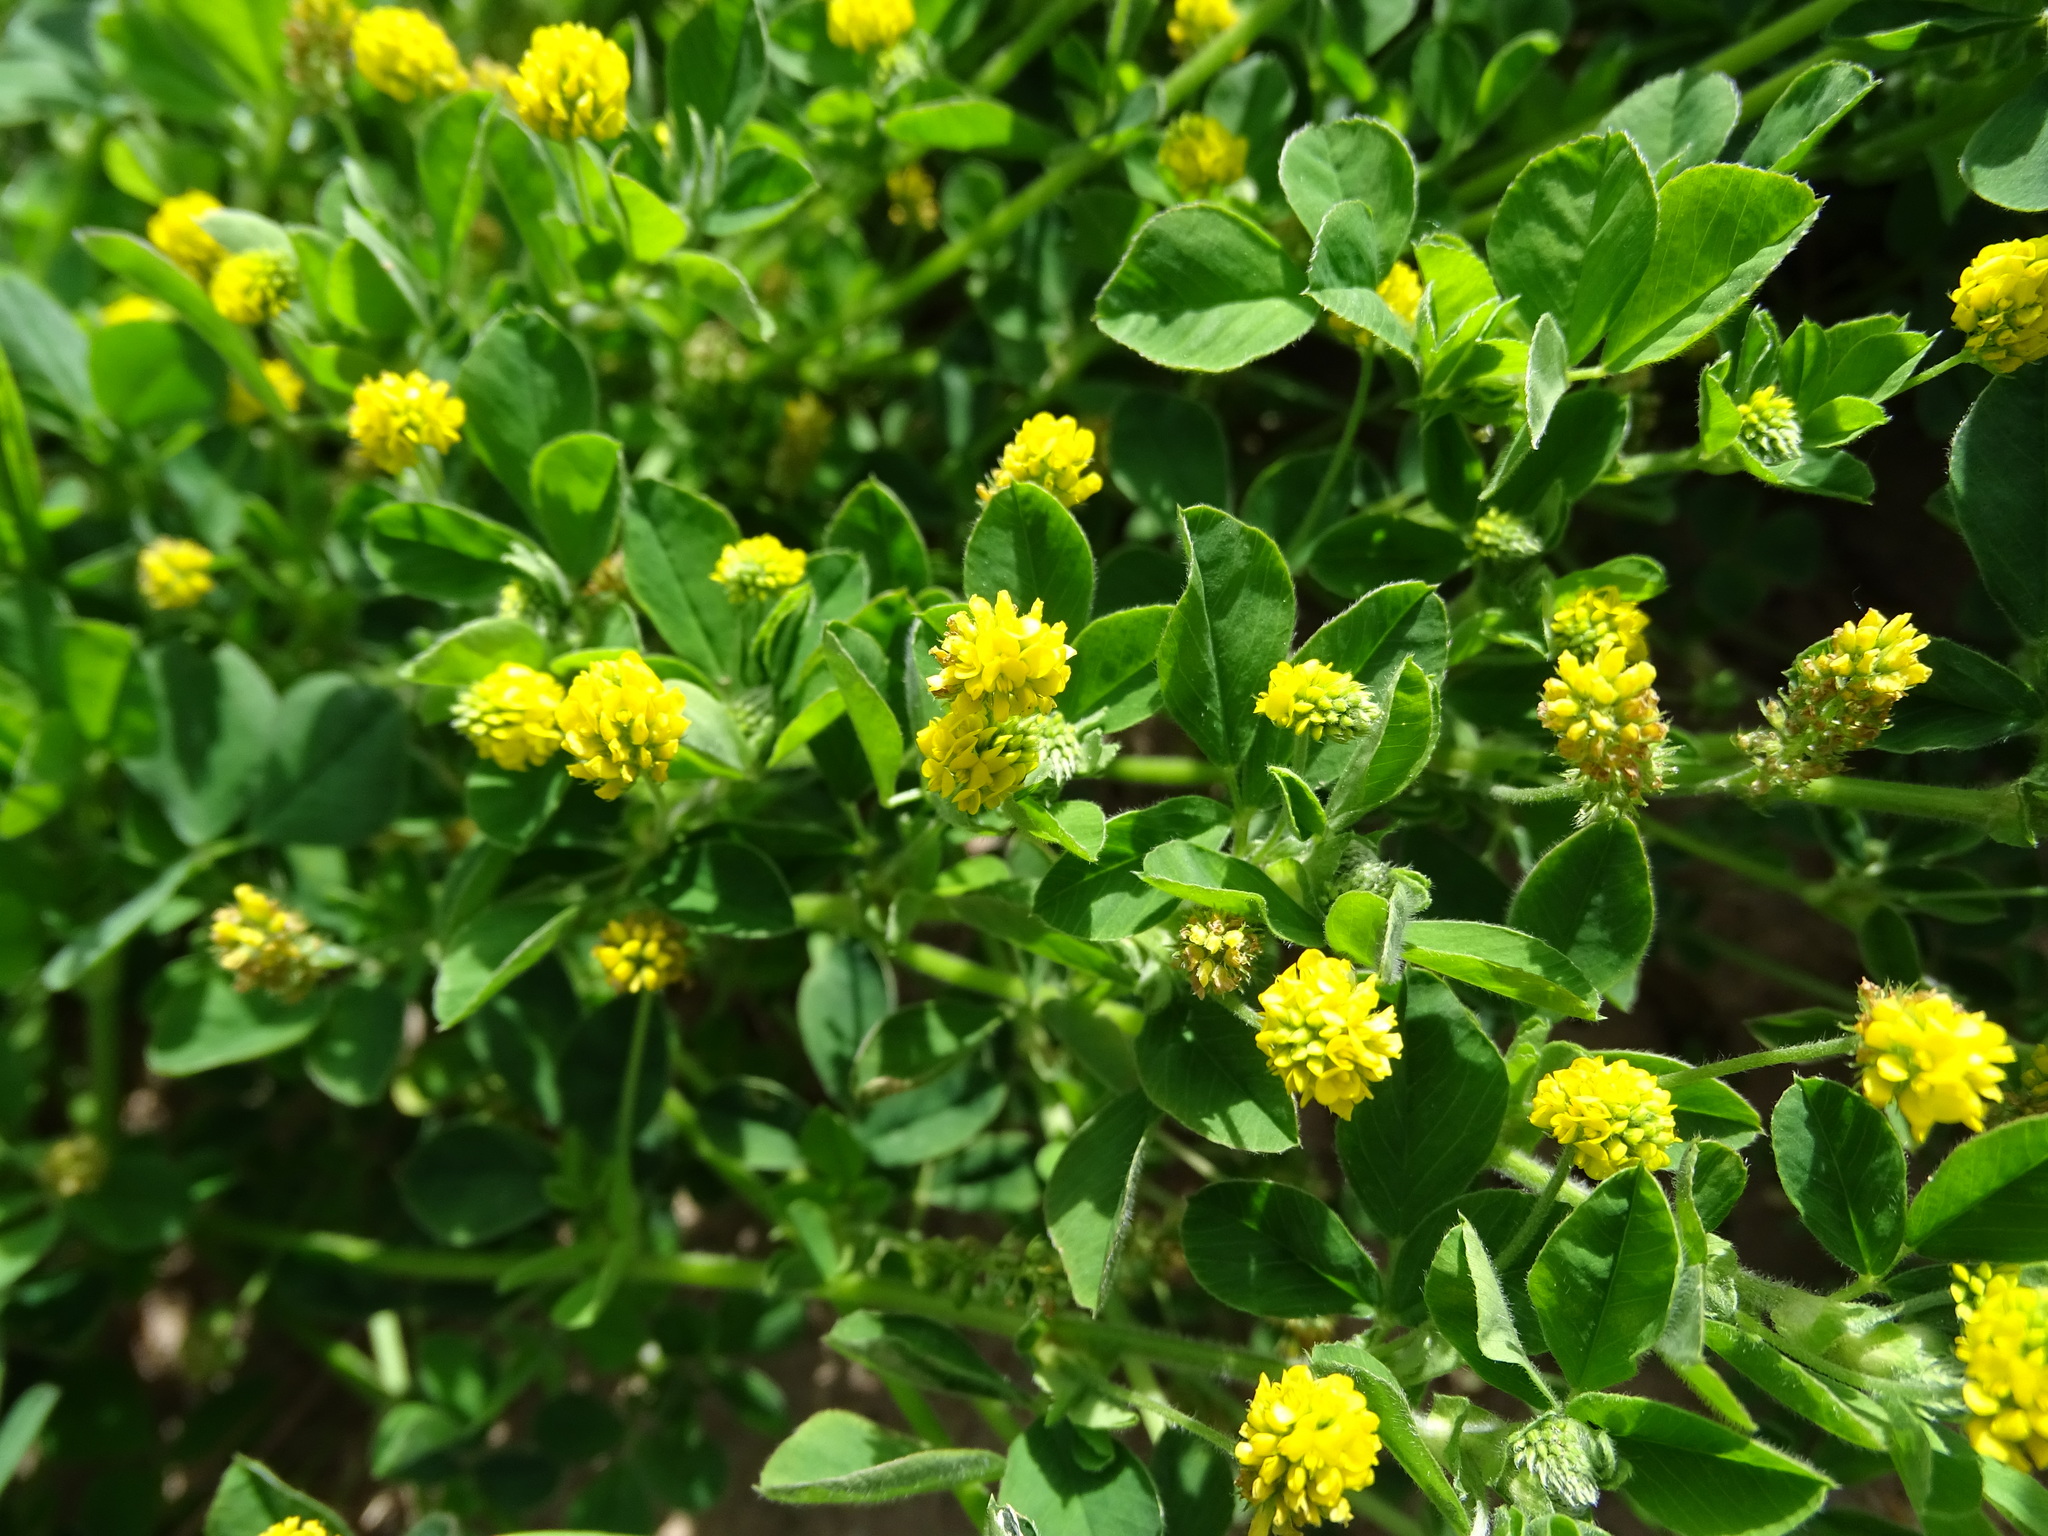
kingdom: Plantae
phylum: Tracheophyta
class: Magnoliopsida
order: Fabales
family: Fabaceae
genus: Medicago
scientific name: Medicago lupulina
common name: Black medick
